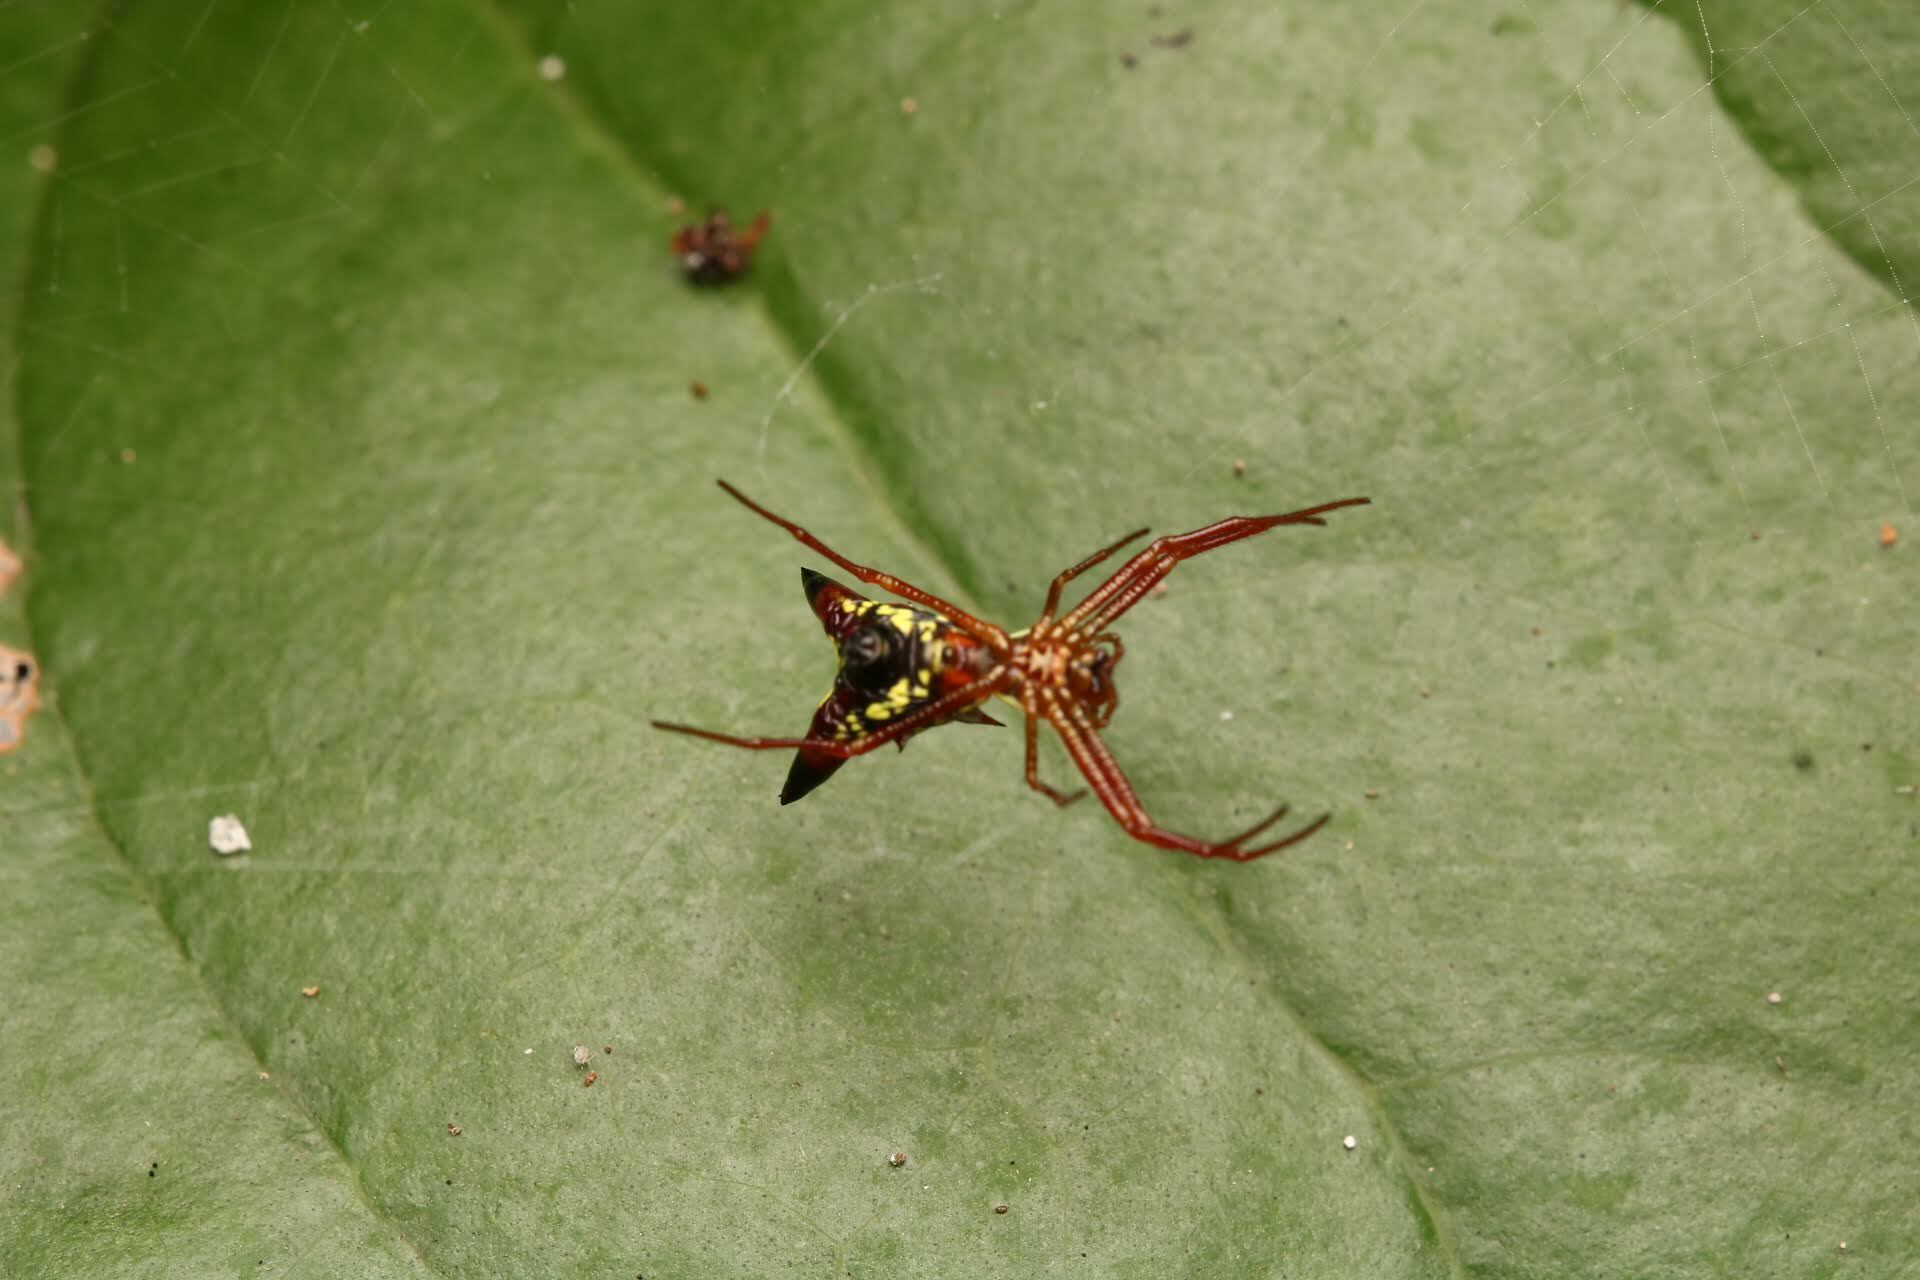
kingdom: Animalia
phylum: Arthropoda
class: Arachnida
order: Araneae
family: Araneidae
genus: Micrathena
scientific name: Micrathena sagittata
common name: Orb weavers
